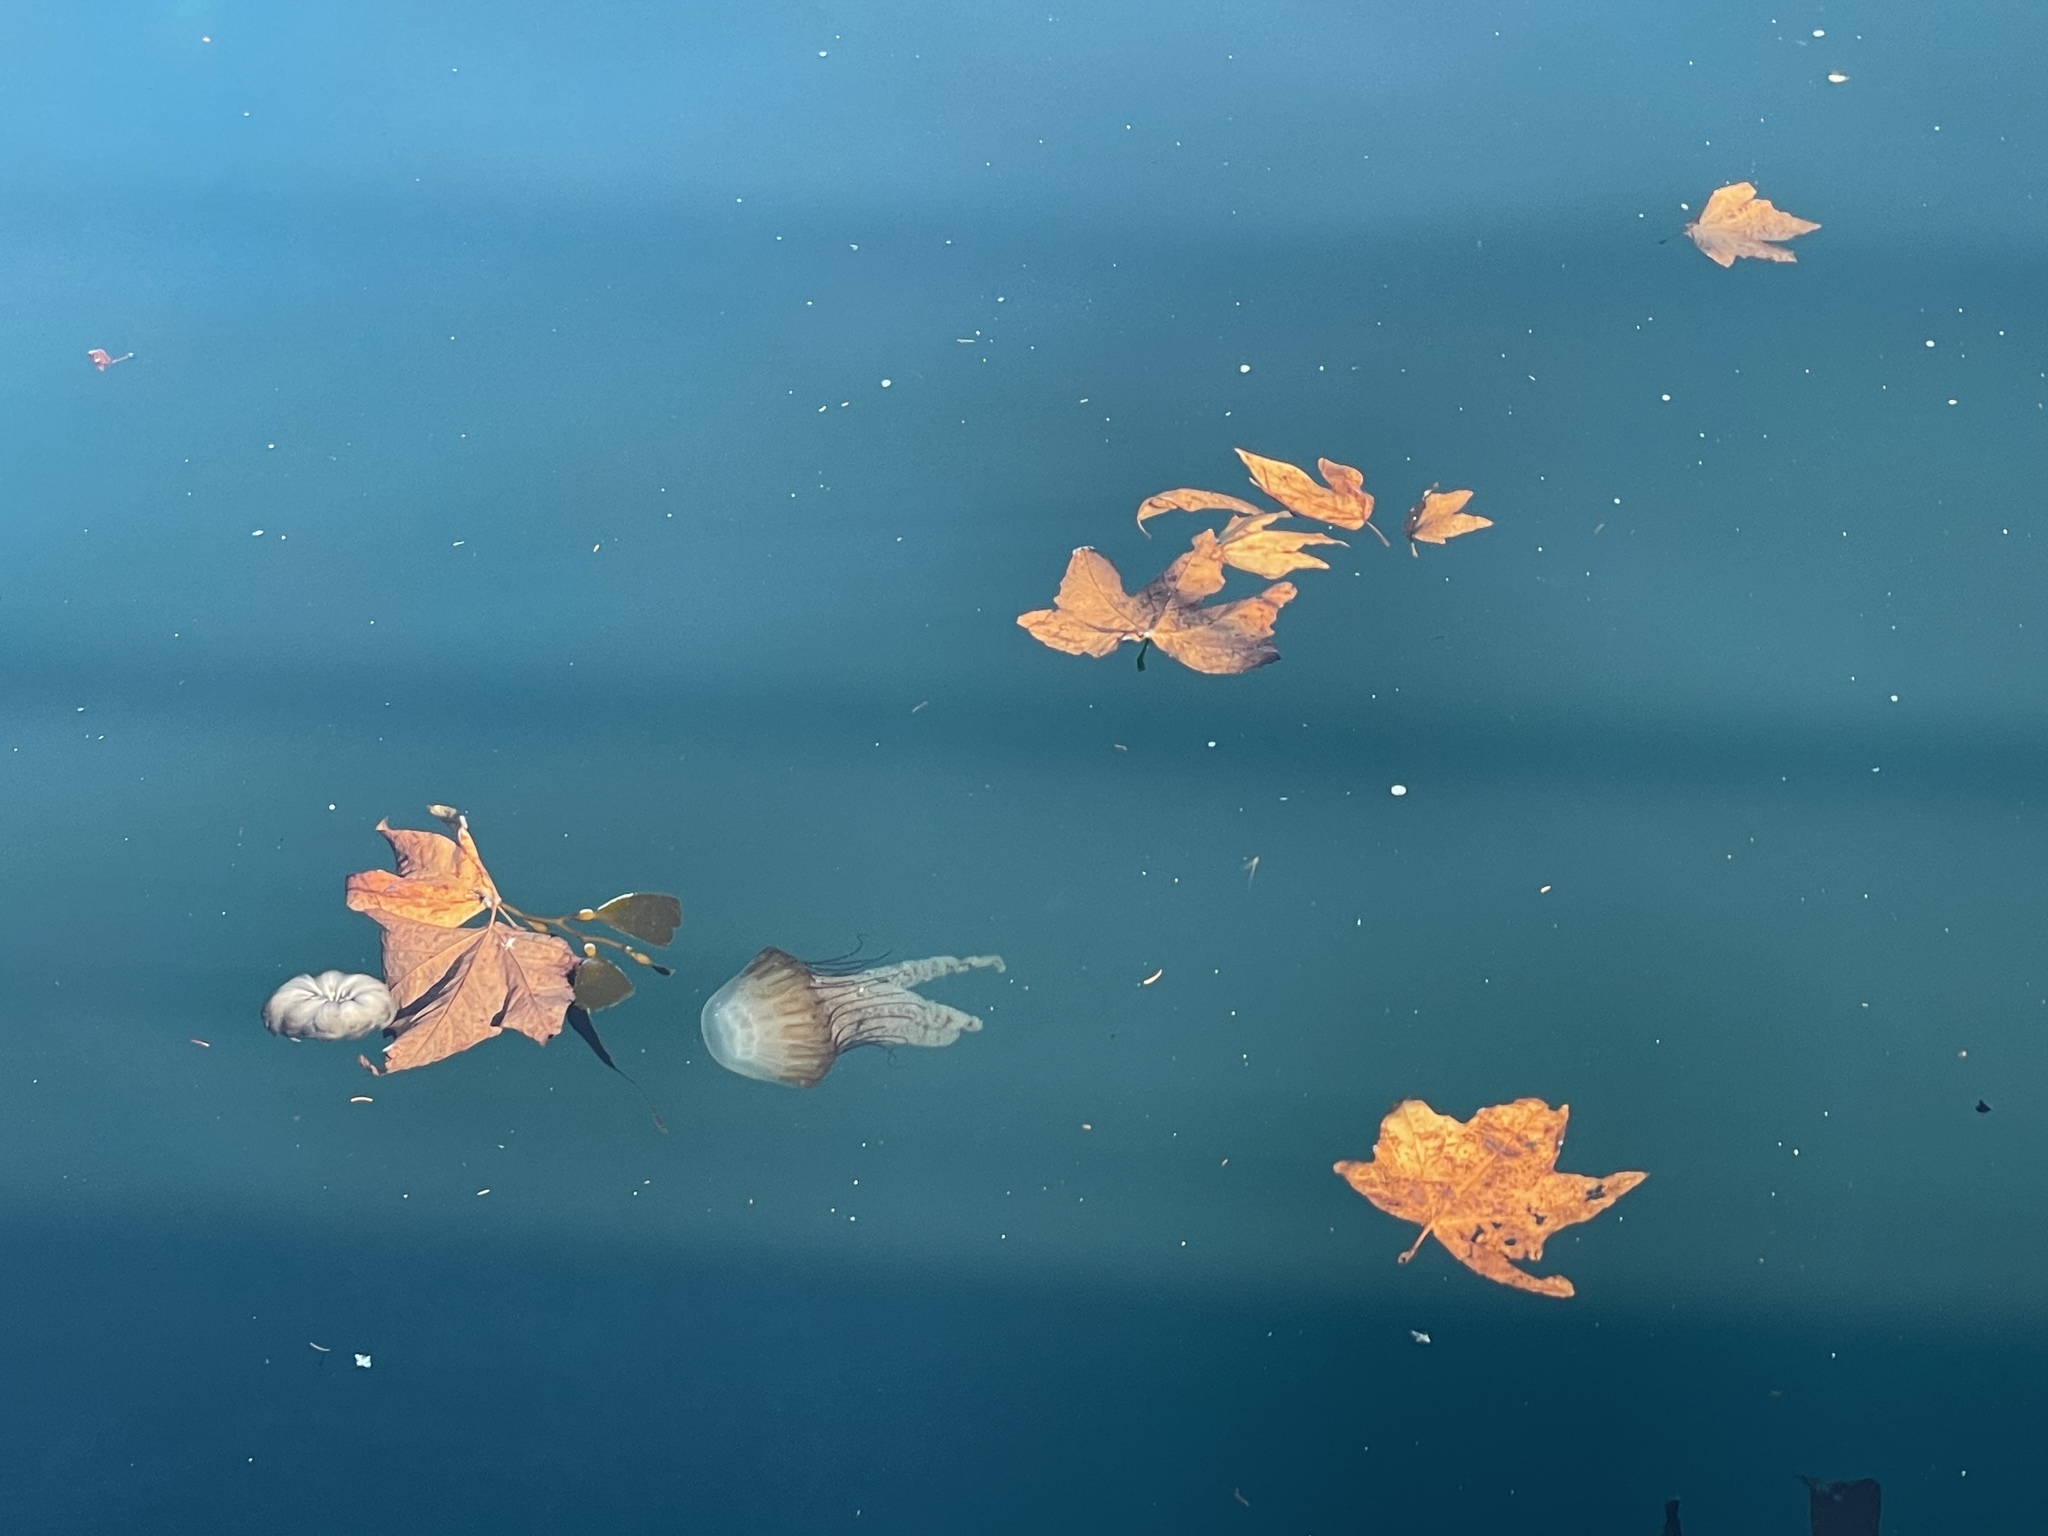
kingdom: Animalia
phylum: Cnidaria
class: Scyphozoa
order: Semaeostomeae
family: Pelagiidae
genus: Chrysaora
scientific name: Chrysaora fuscescens
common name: Sea nettle
